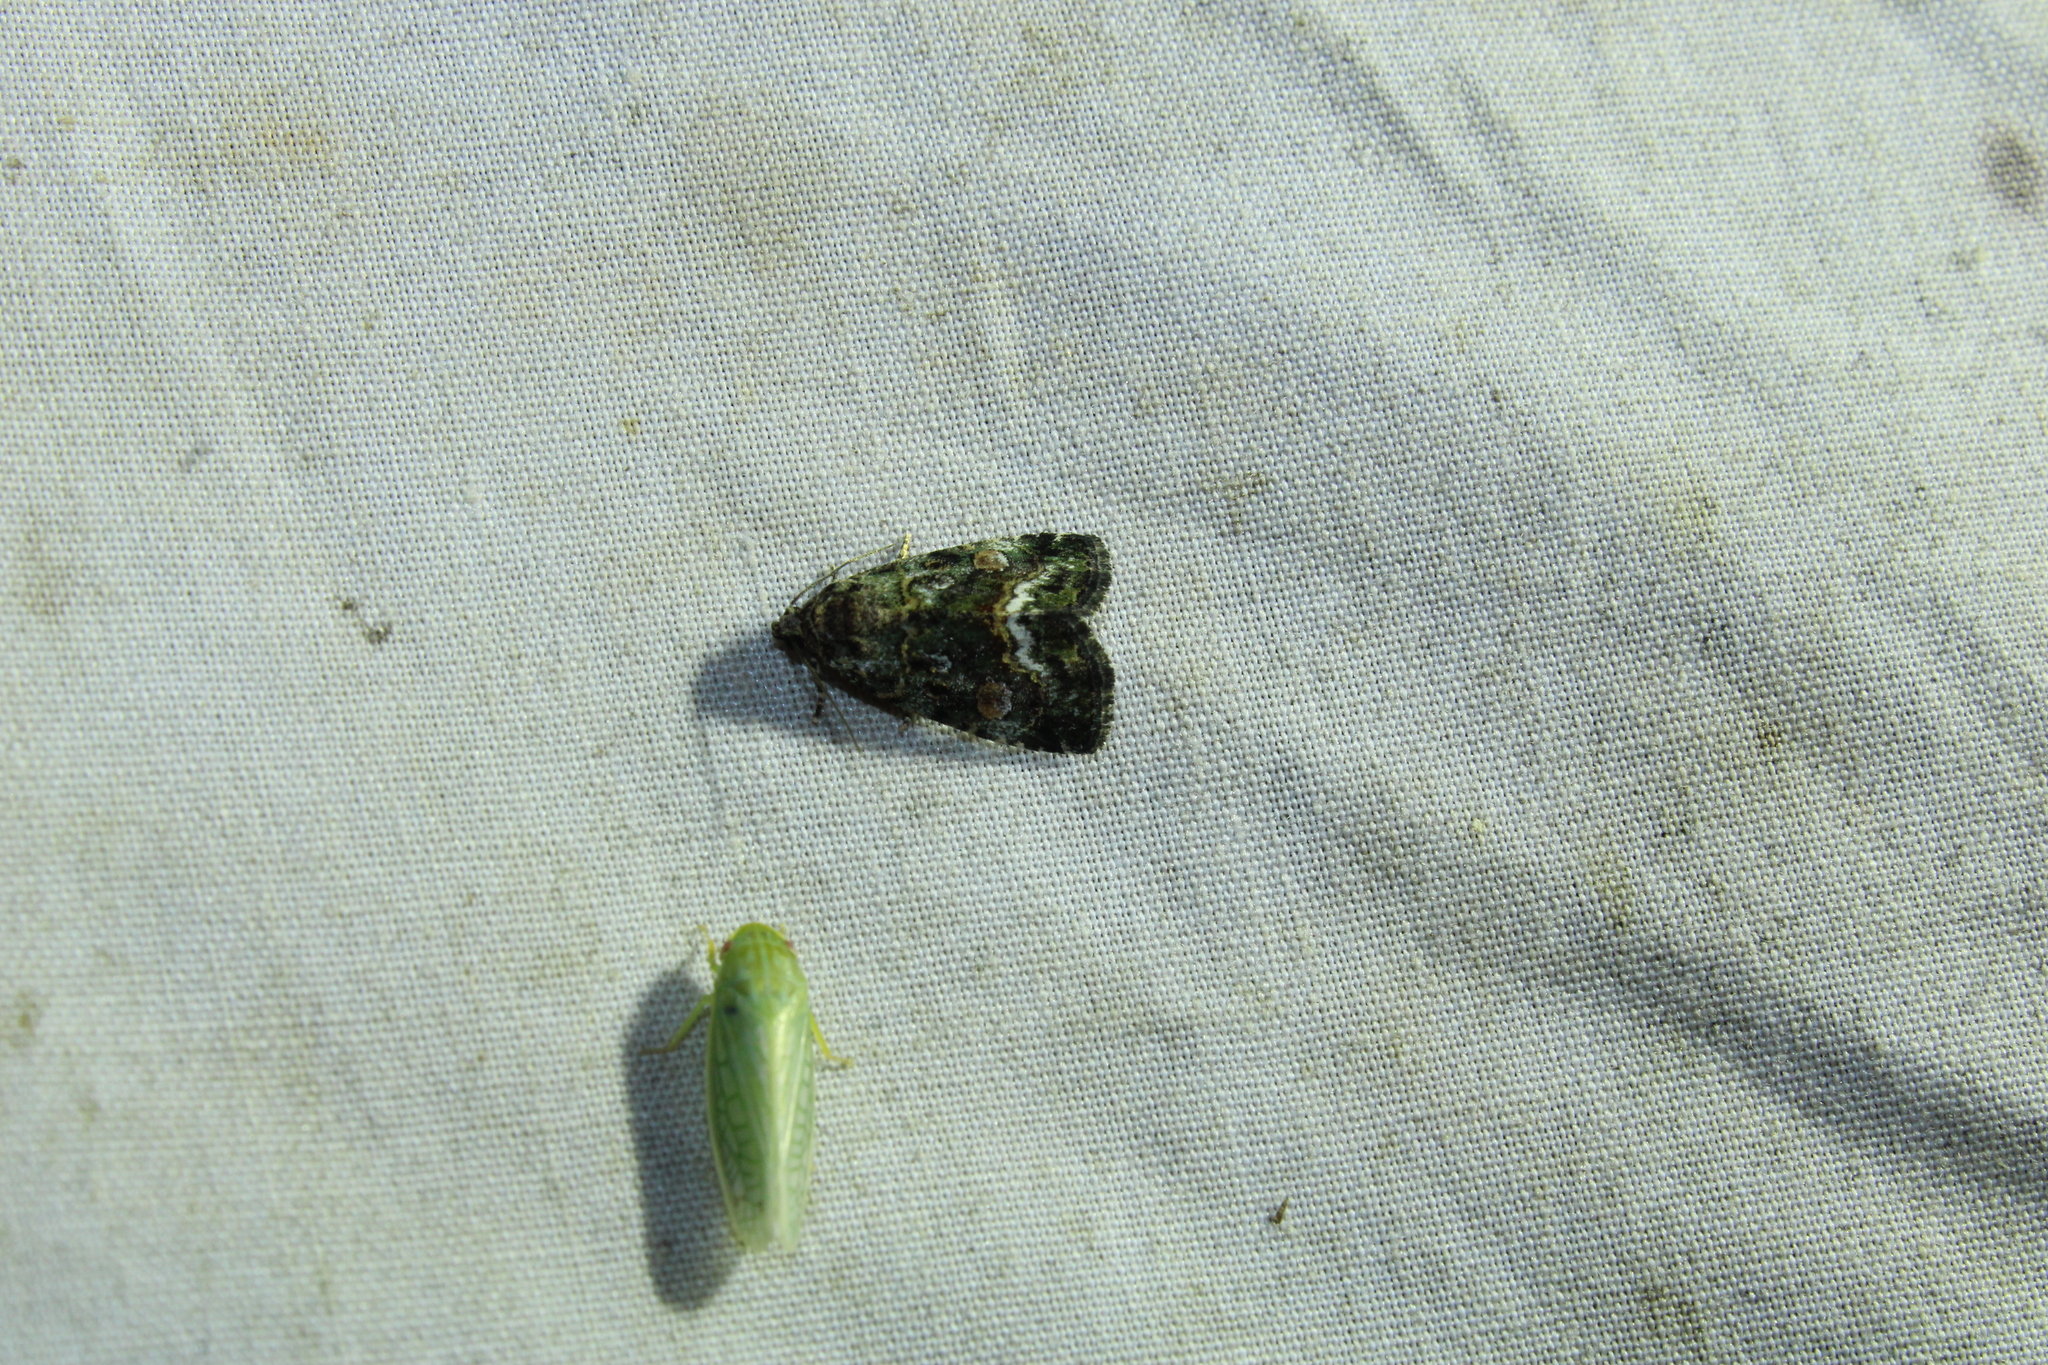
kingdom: Animalia
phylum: Arthropoda
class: Insecta
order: Lepidoptera
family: Noctuidae
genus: Lithacodia
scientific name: Lithacodia musta
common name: Small mossy glyph
